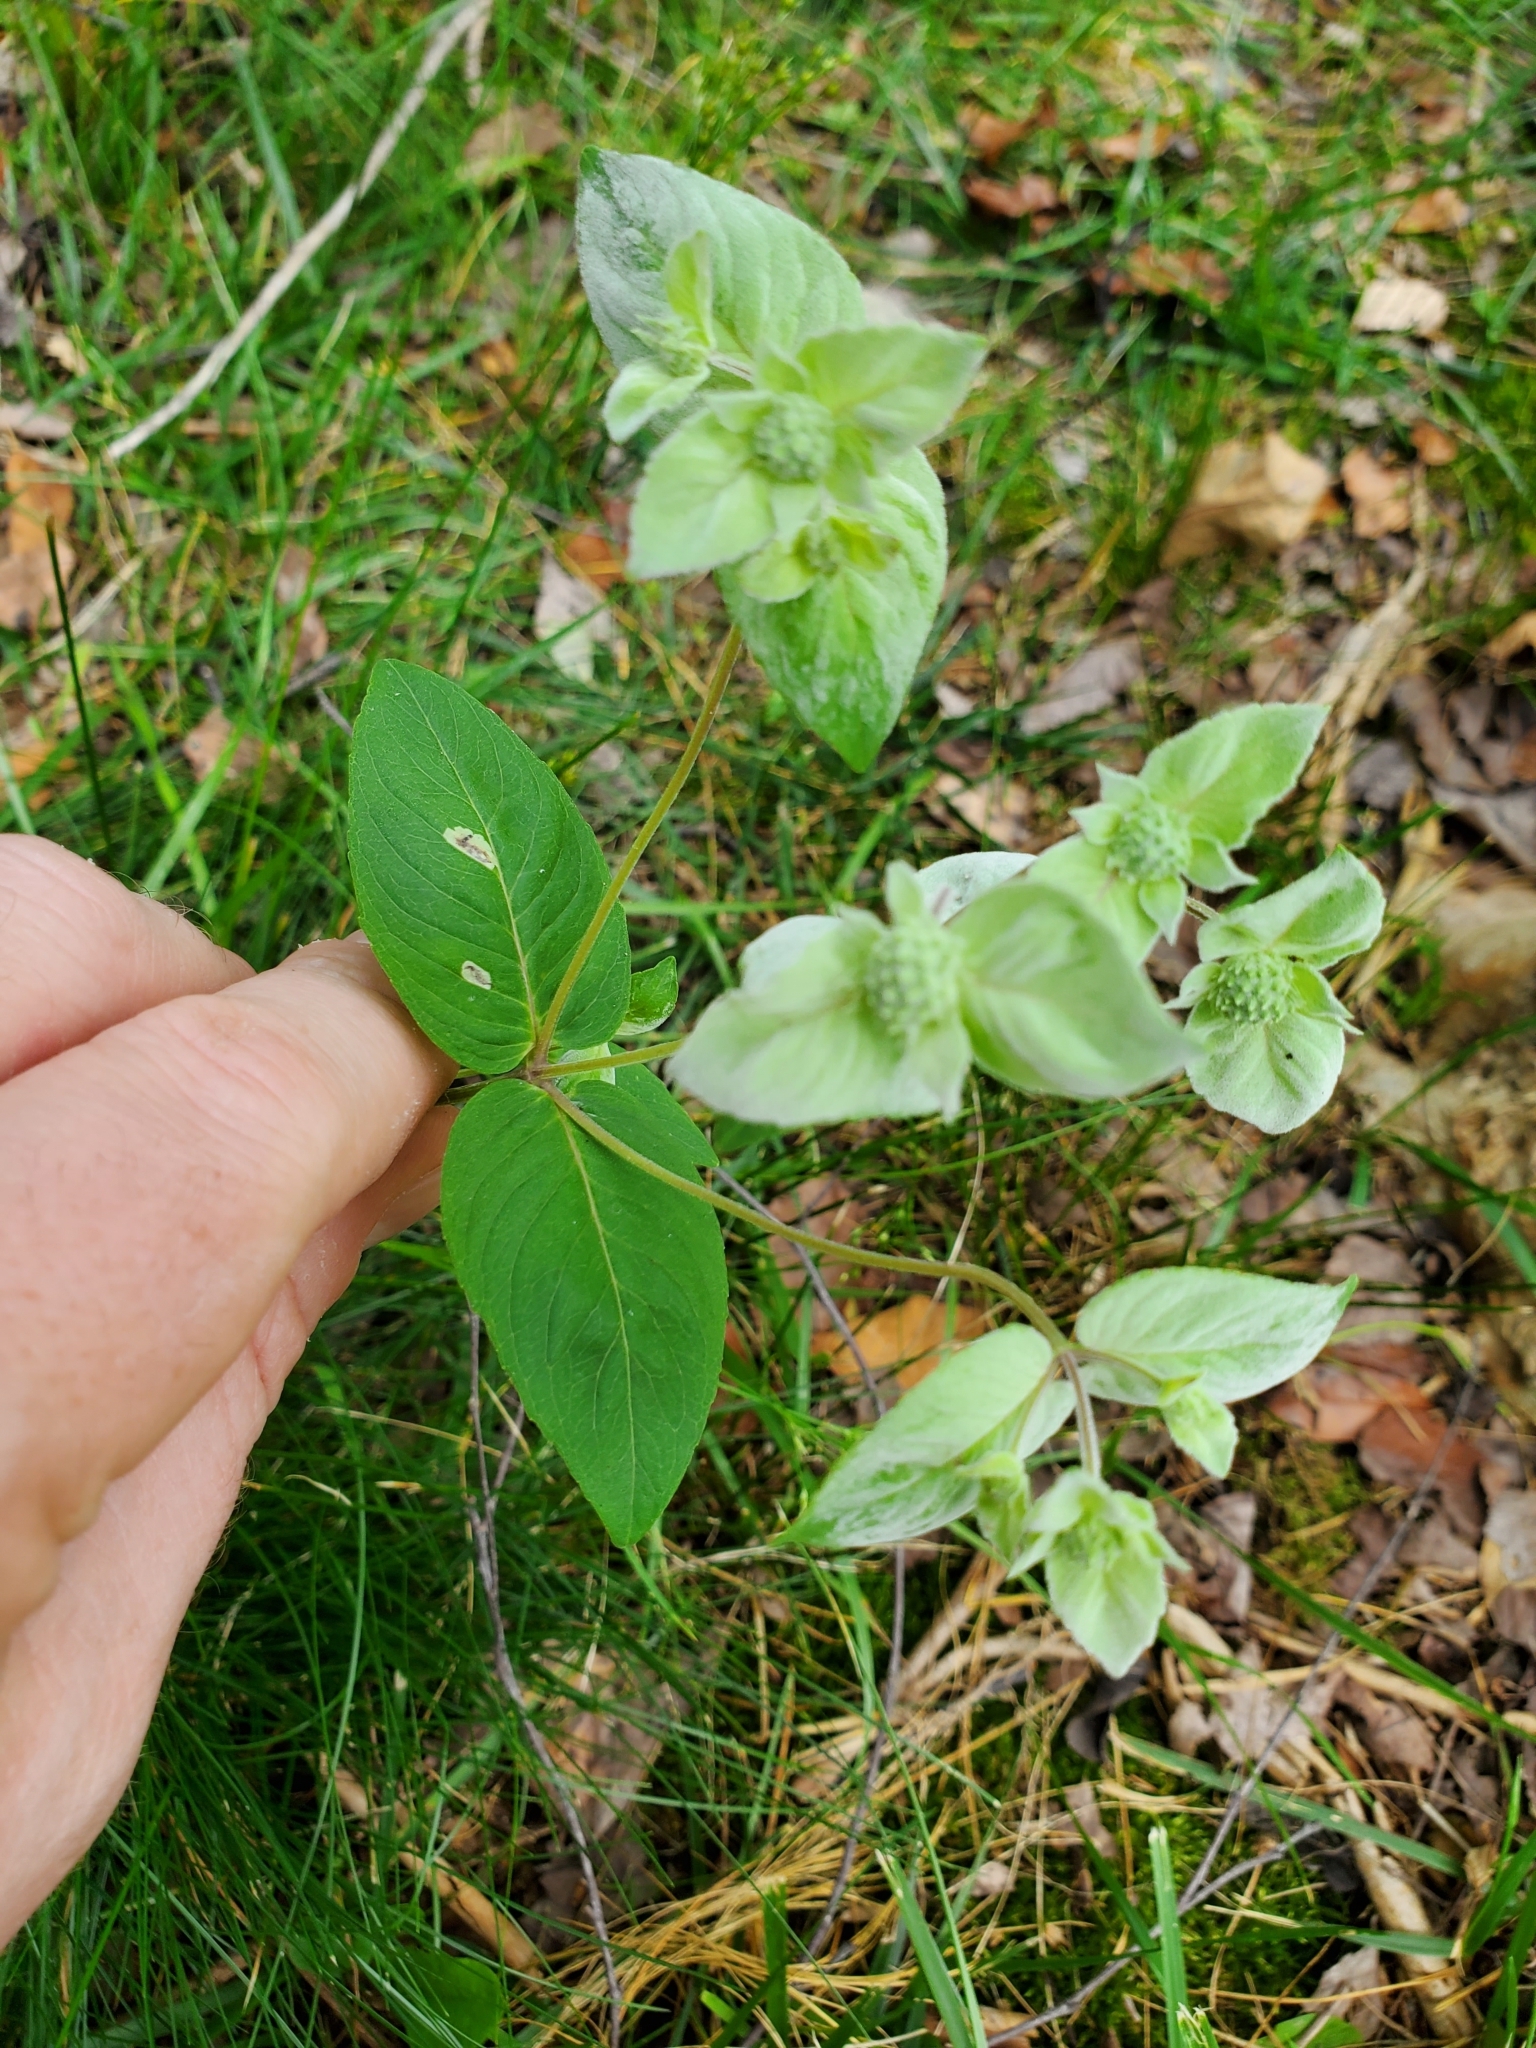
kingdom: Animalia
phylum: Arthropoda
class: Insecta
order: Diptera
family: Agromyzidae
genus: Calycomyza
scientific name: Calycomyza menthae
